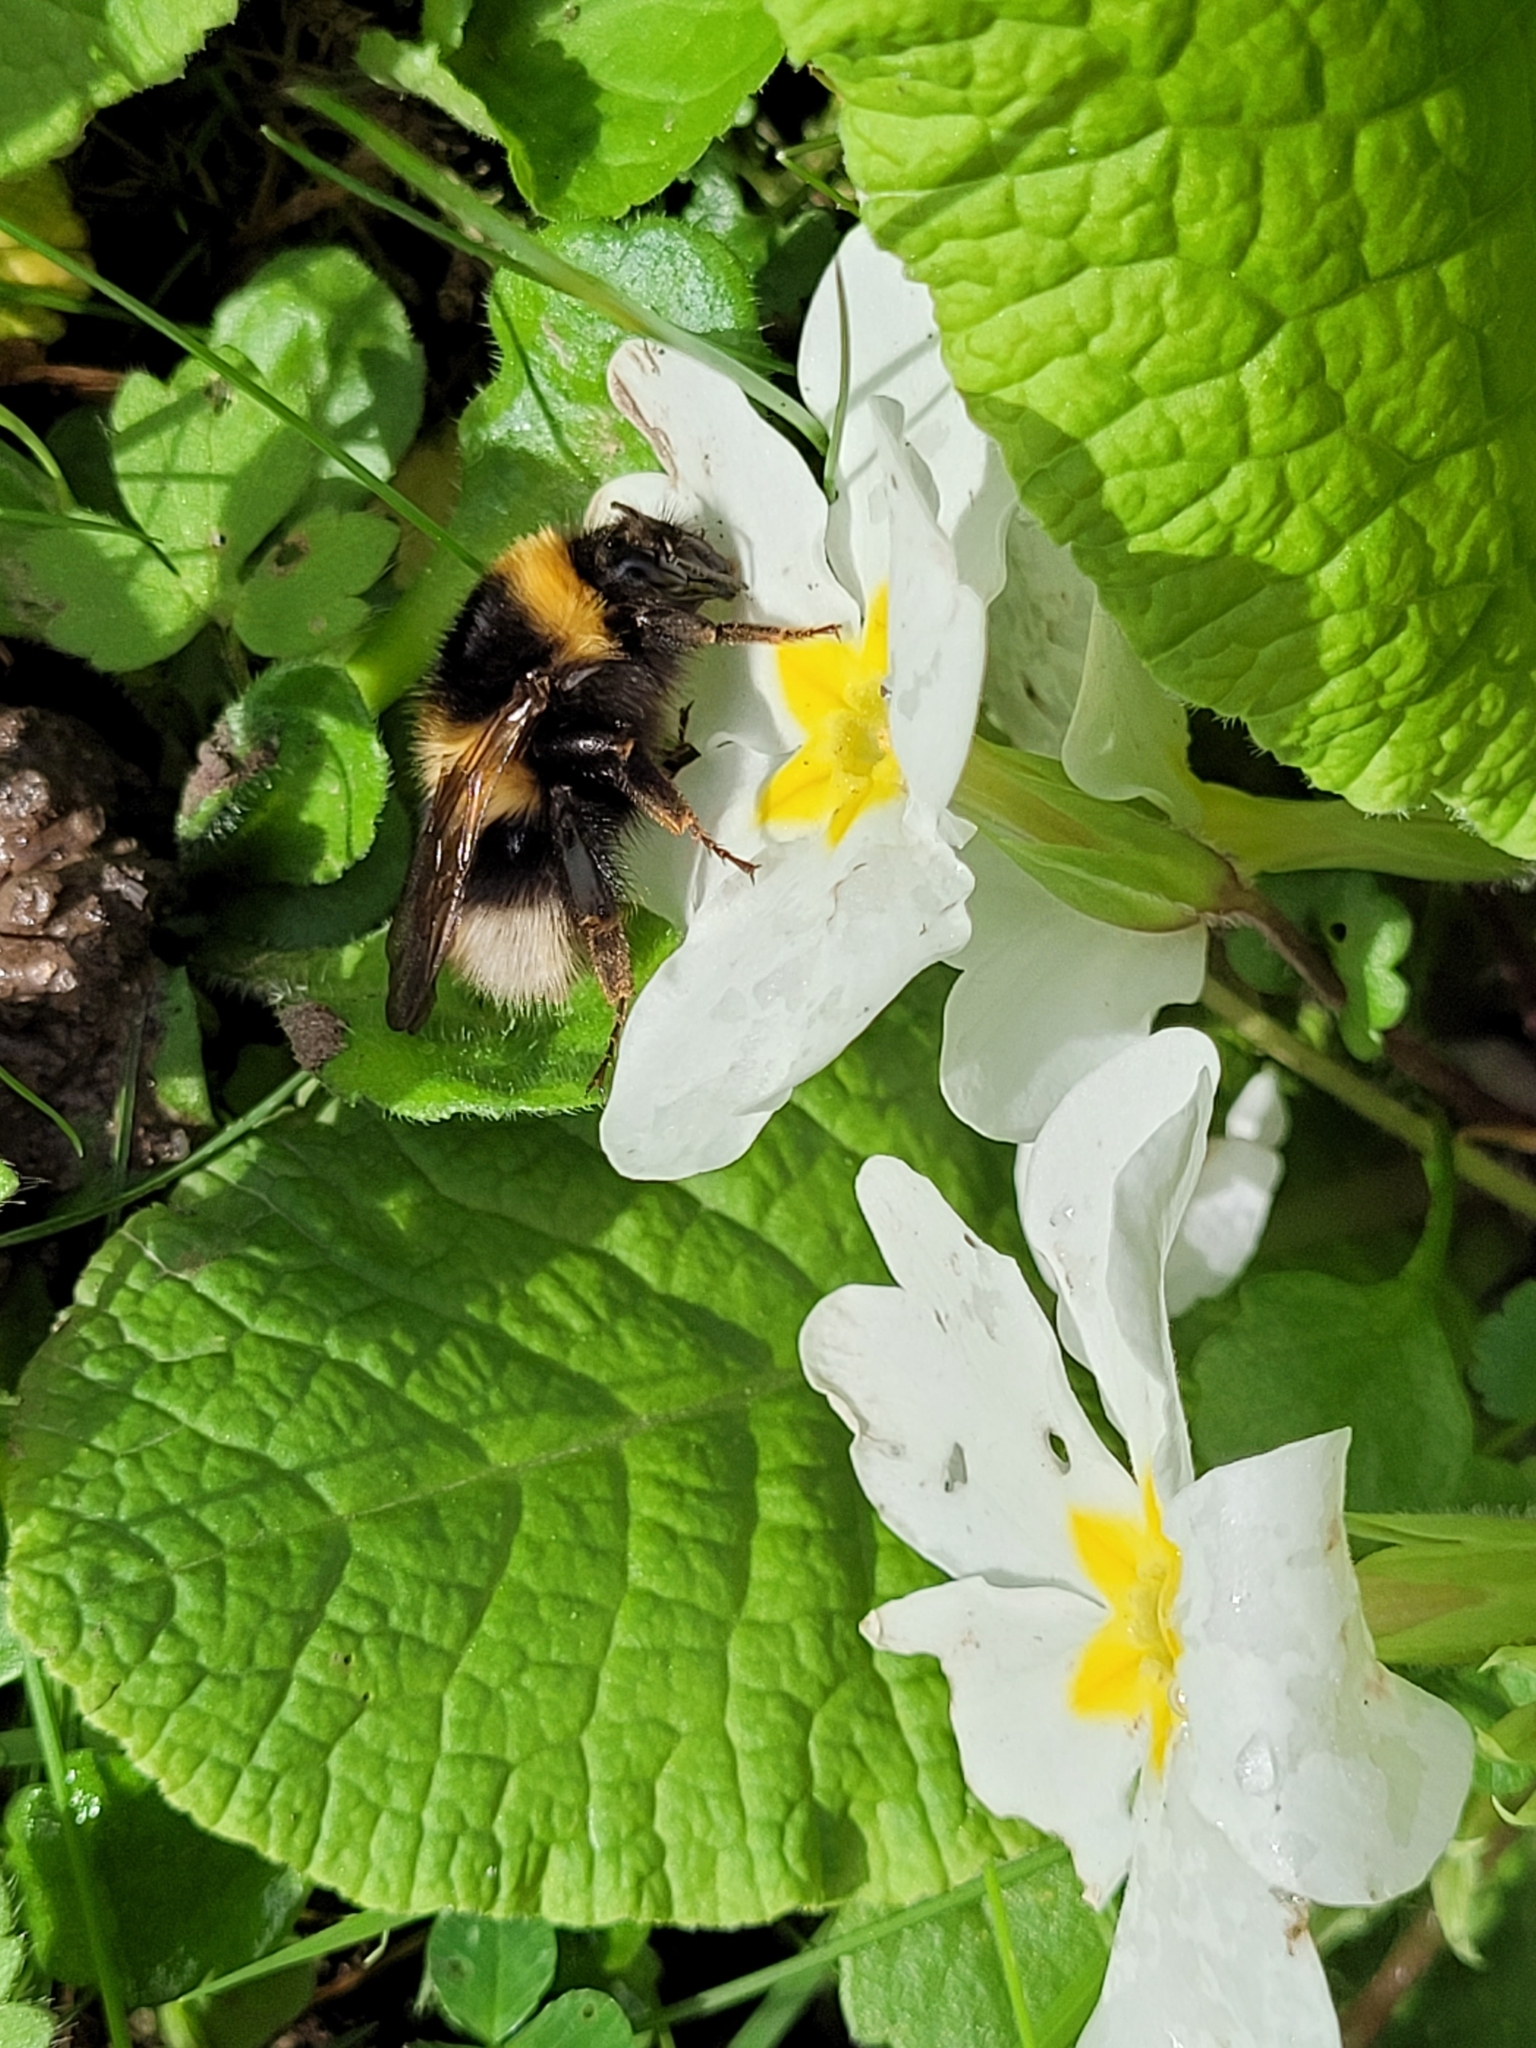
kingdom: Animalia
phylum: Arthropoda
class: Insecta
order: Hymenoptera
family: Apidae
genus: Bombus
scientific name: Bombus hortorum
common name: Garden bumblebee
